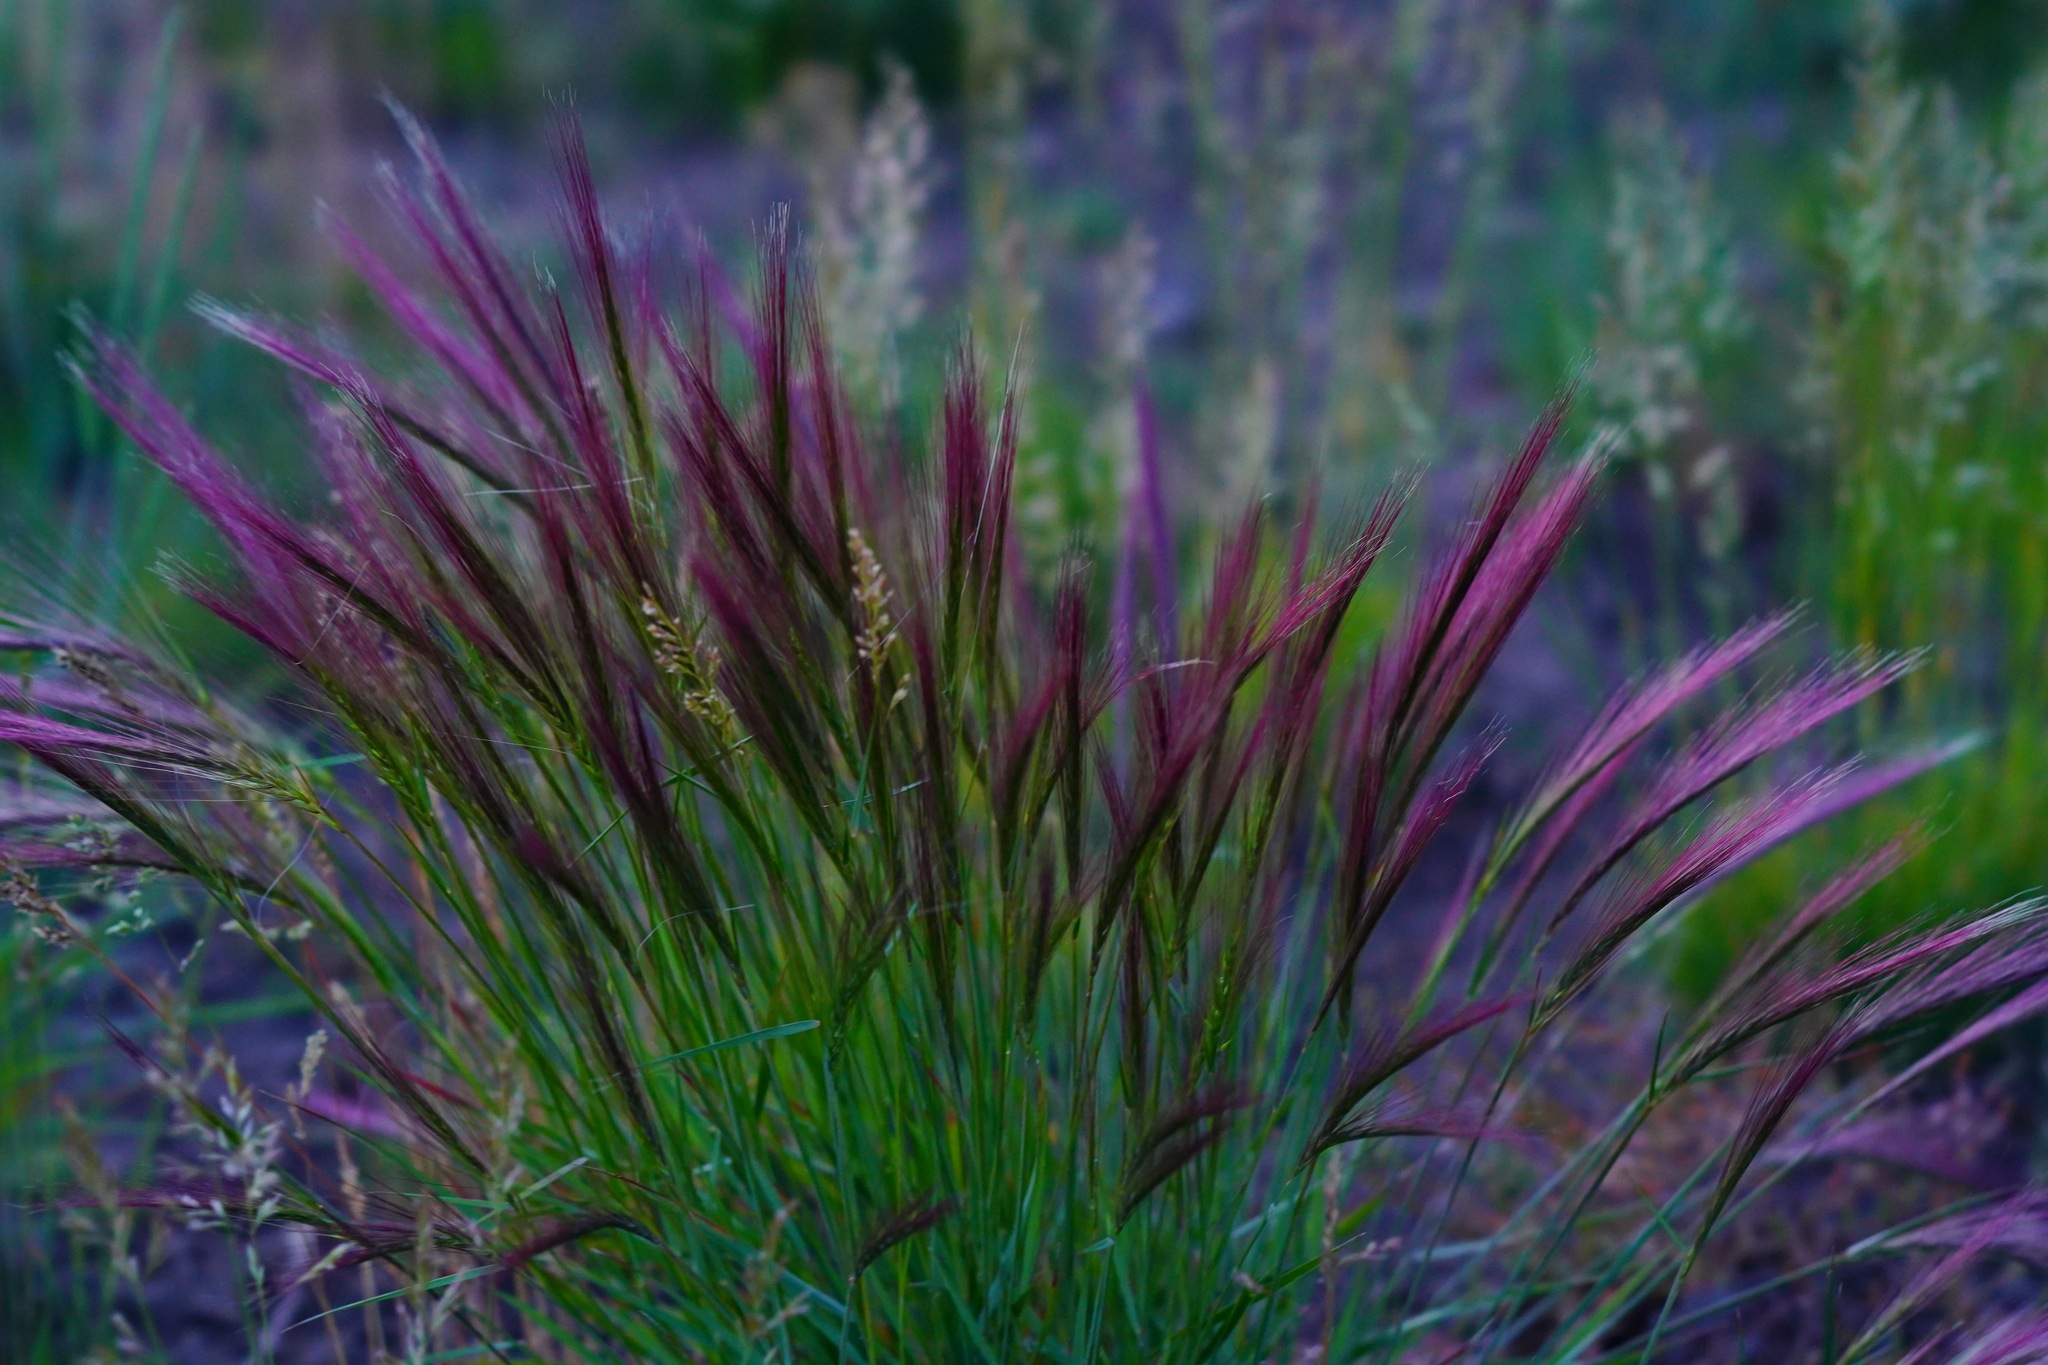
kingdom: Plantae
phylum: Tracheophyta
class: Liliopsida
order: Poales
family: Poaceae
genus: Elymus
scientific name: Elymus elymoides
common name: Bottlebrush squirreltail
